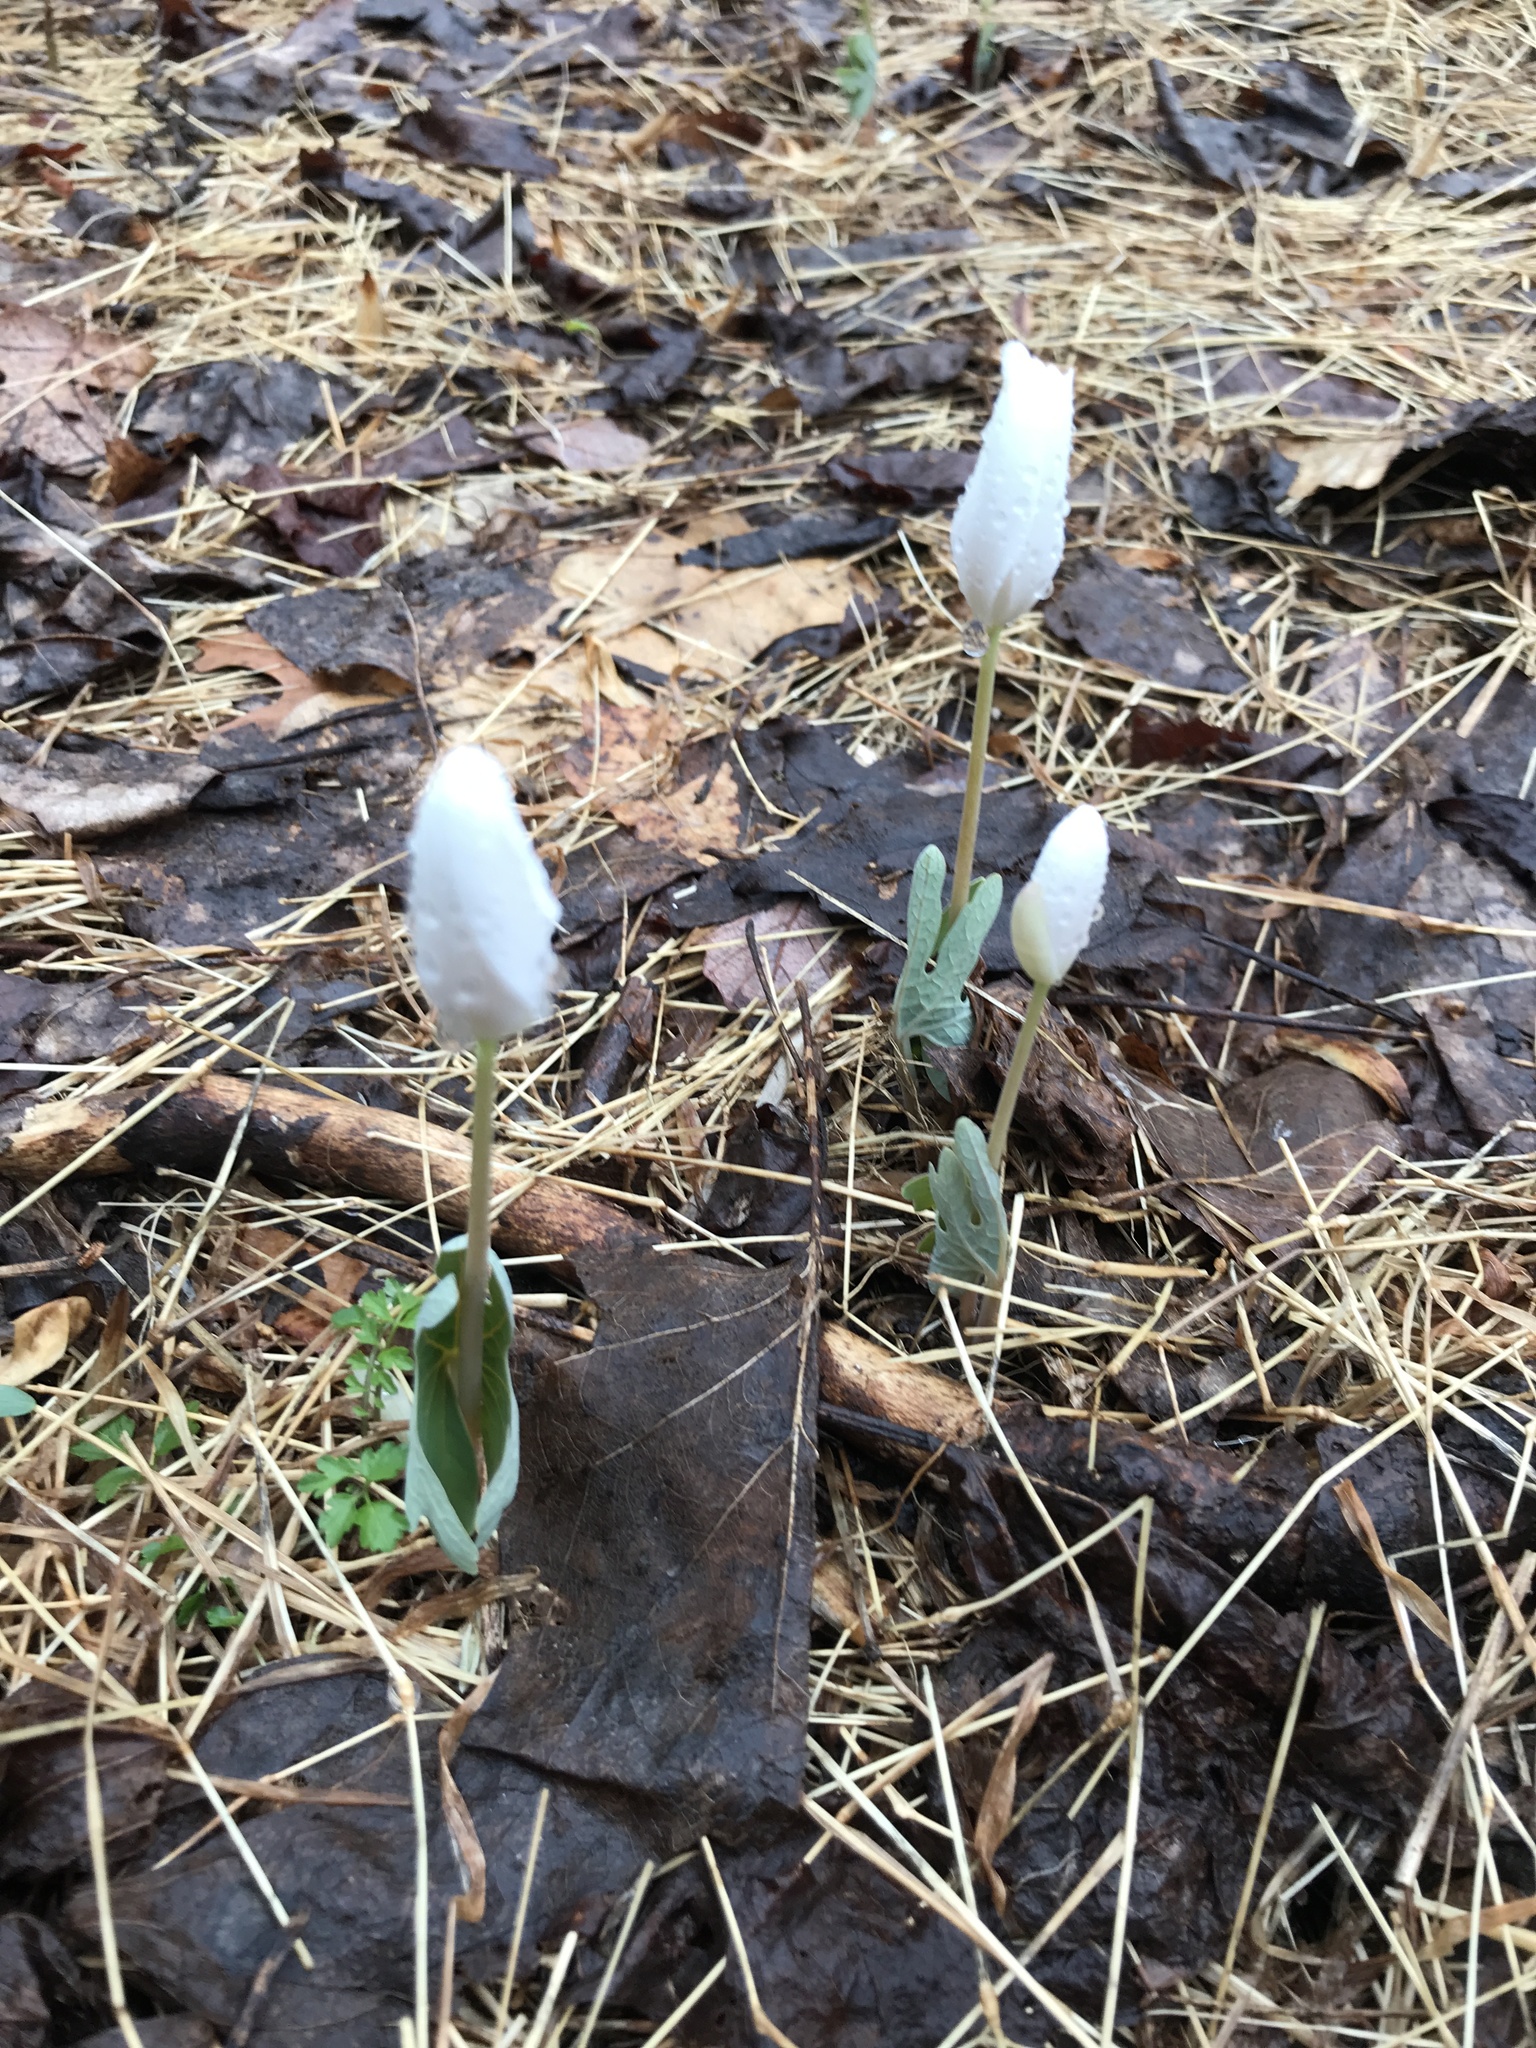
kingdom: Plantae
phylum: Tracheophyta
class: Magnoliopsida
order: Ranunculales
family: Papaveraceae
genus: Sanguinaria
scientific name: Sanguinaria canadensis
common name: Bloodroot
